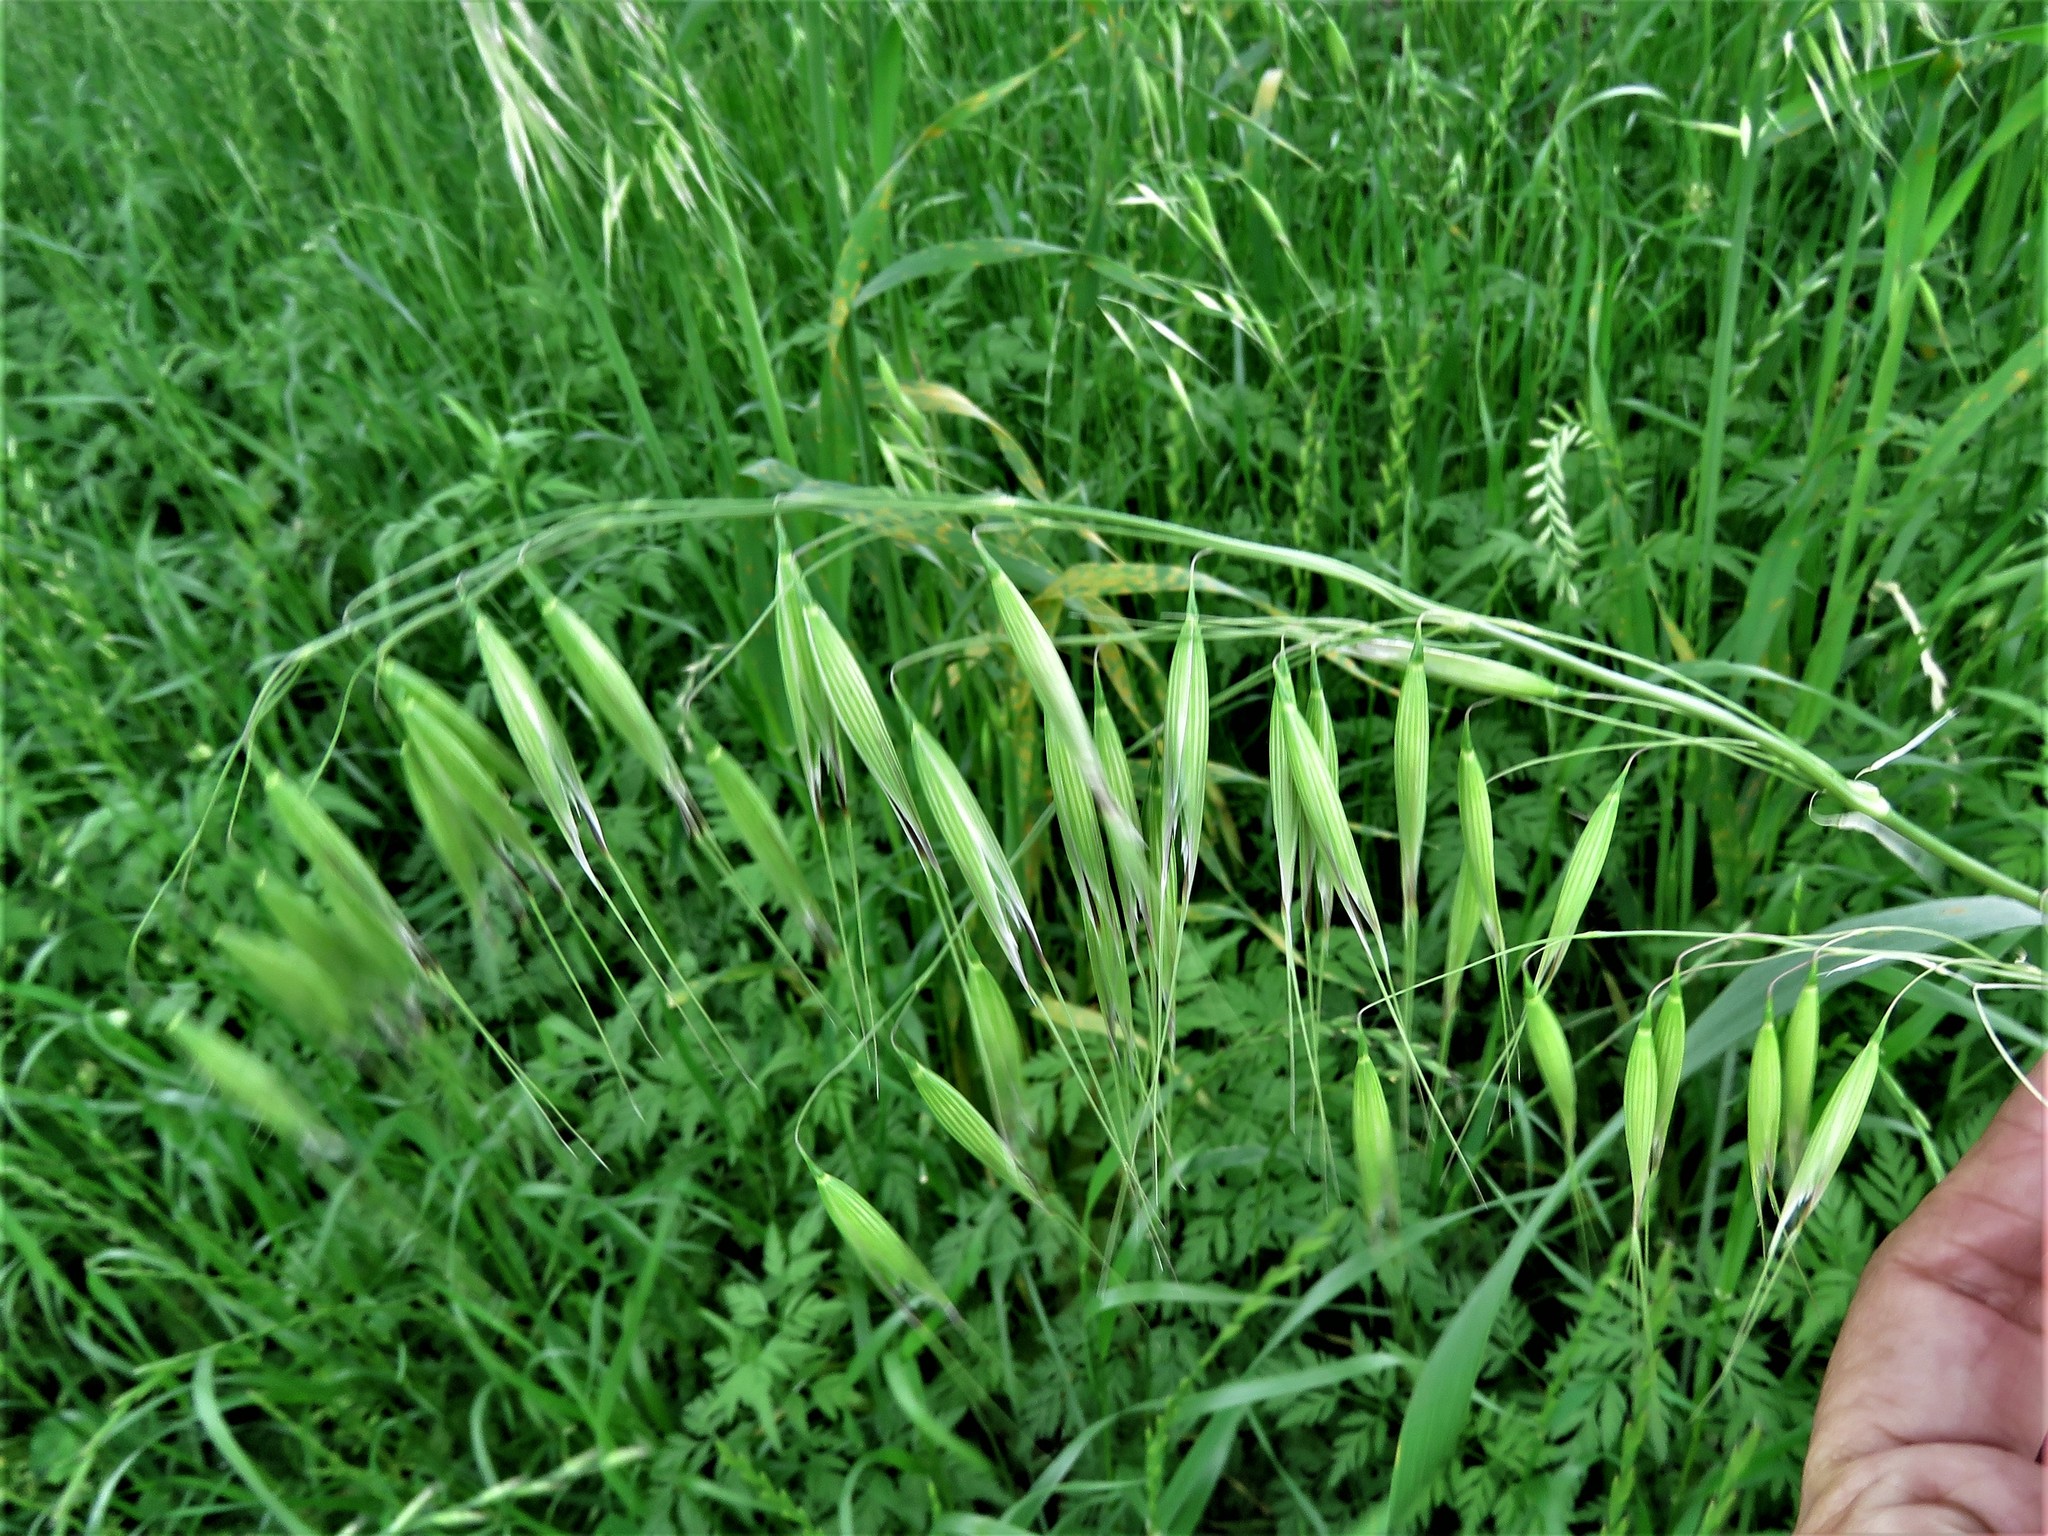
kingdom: Plantae
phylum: Tracheophyta
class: Liliopsida
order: Poales
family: Poaceae
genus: Avena
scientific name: Avena fatua
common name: Wild oat
